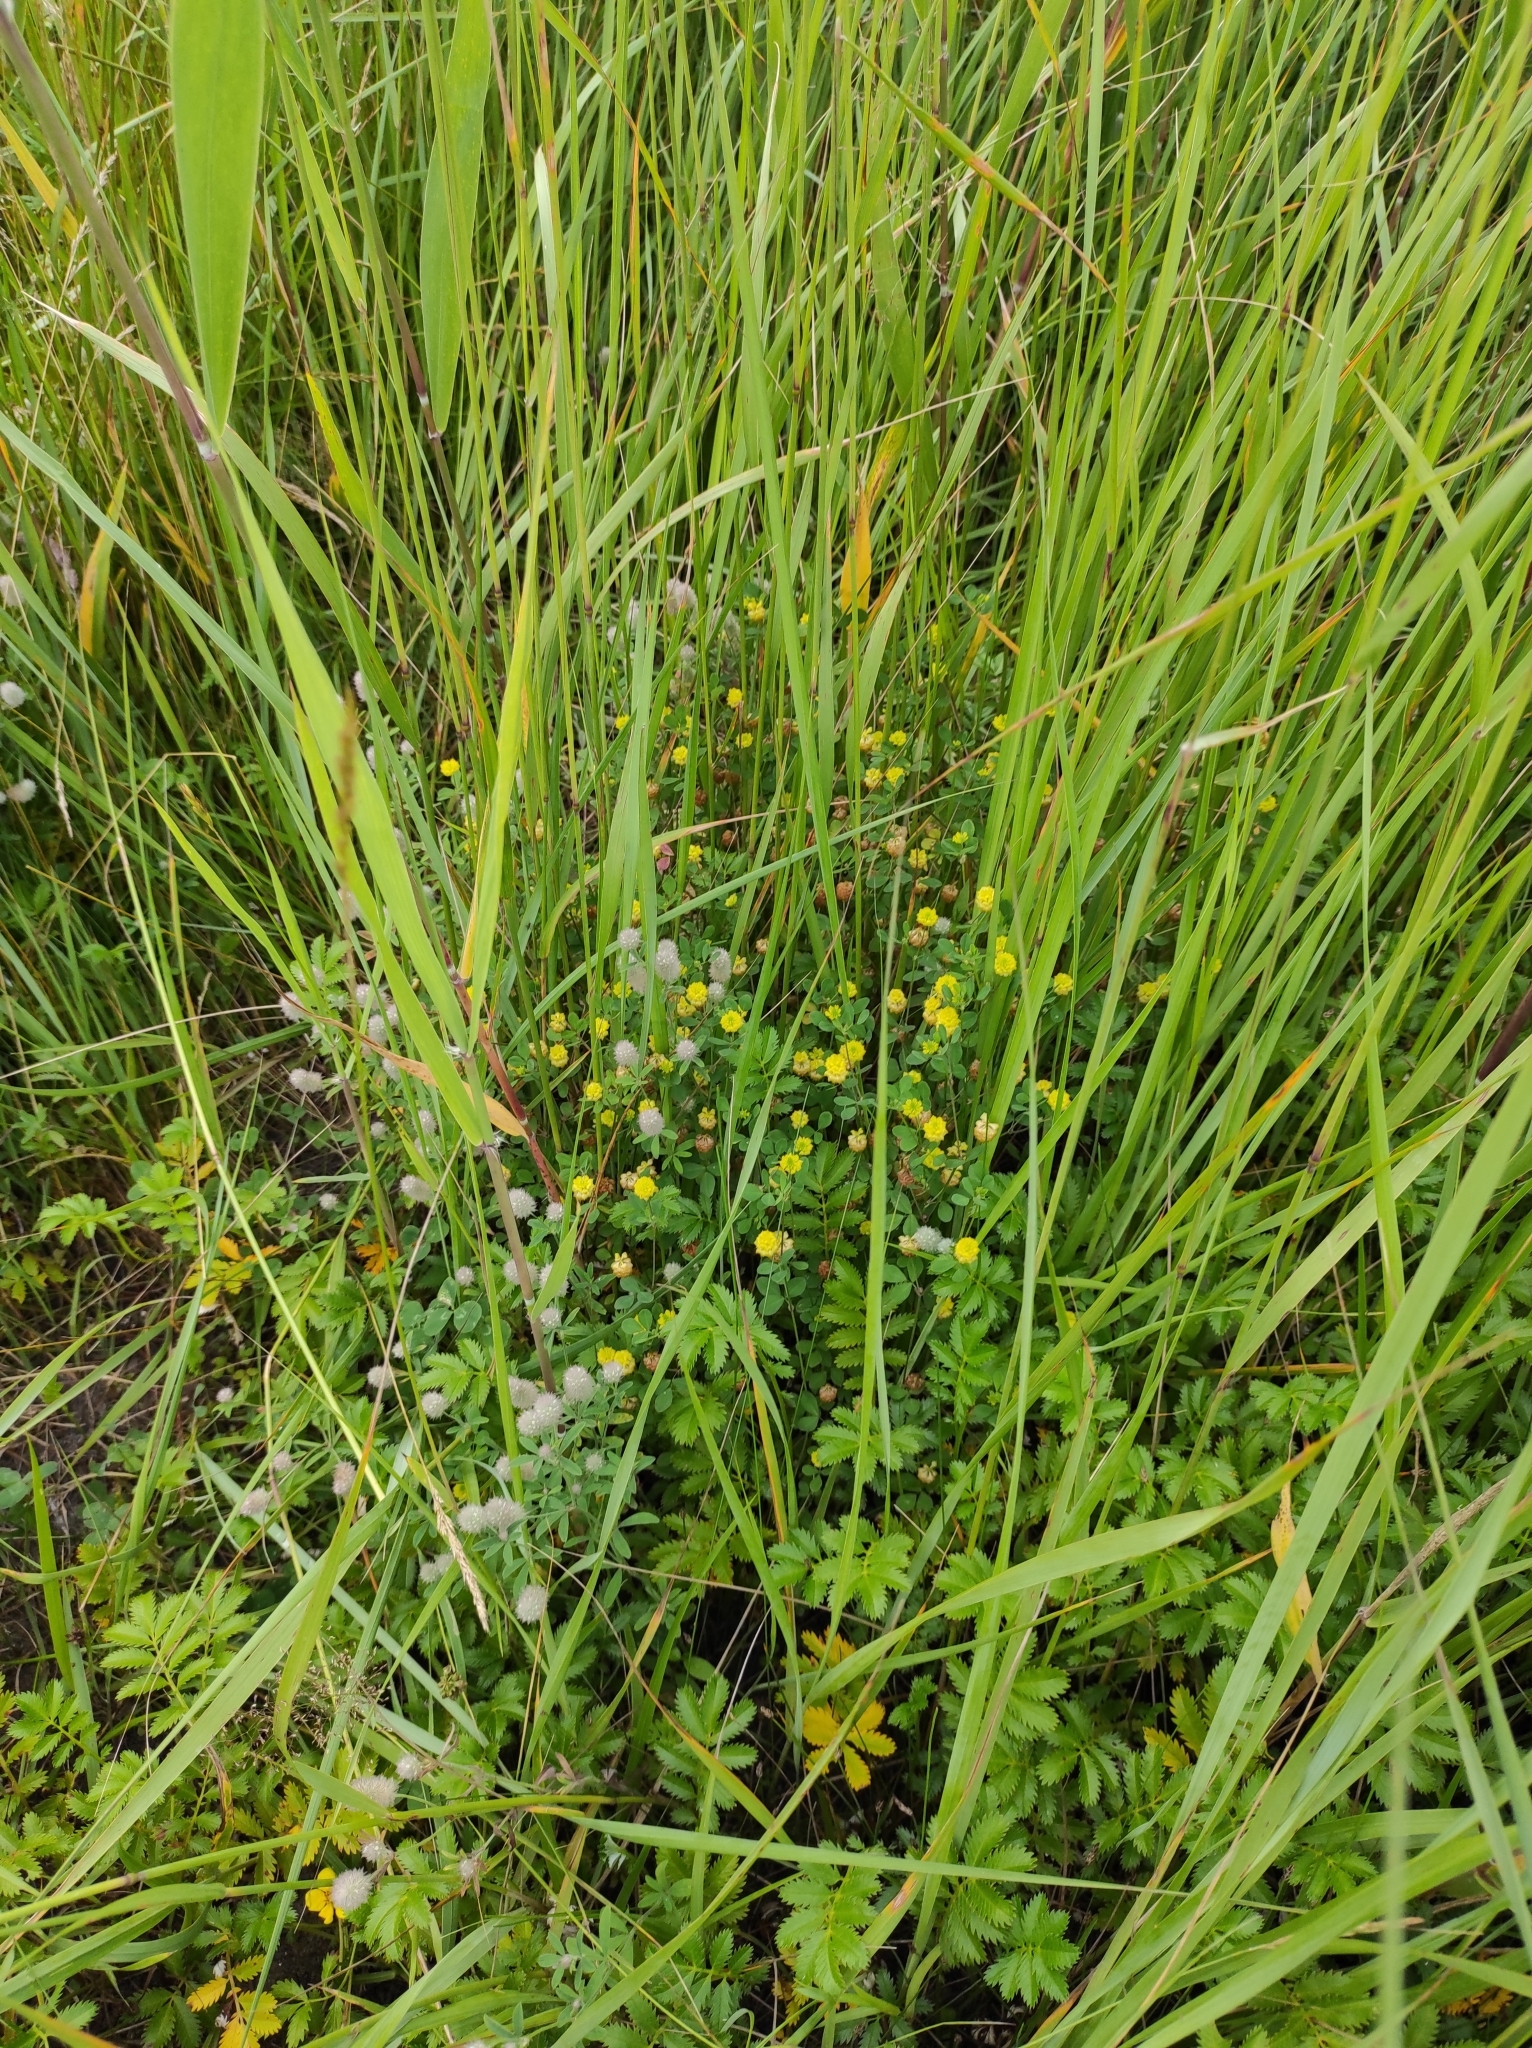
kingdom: Plantae
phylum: Tracheophyta
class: Magnoliopsida
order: Fabales
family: Fabaceae
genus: Trifolium
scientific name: Trifolium campestre
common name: Field clover
